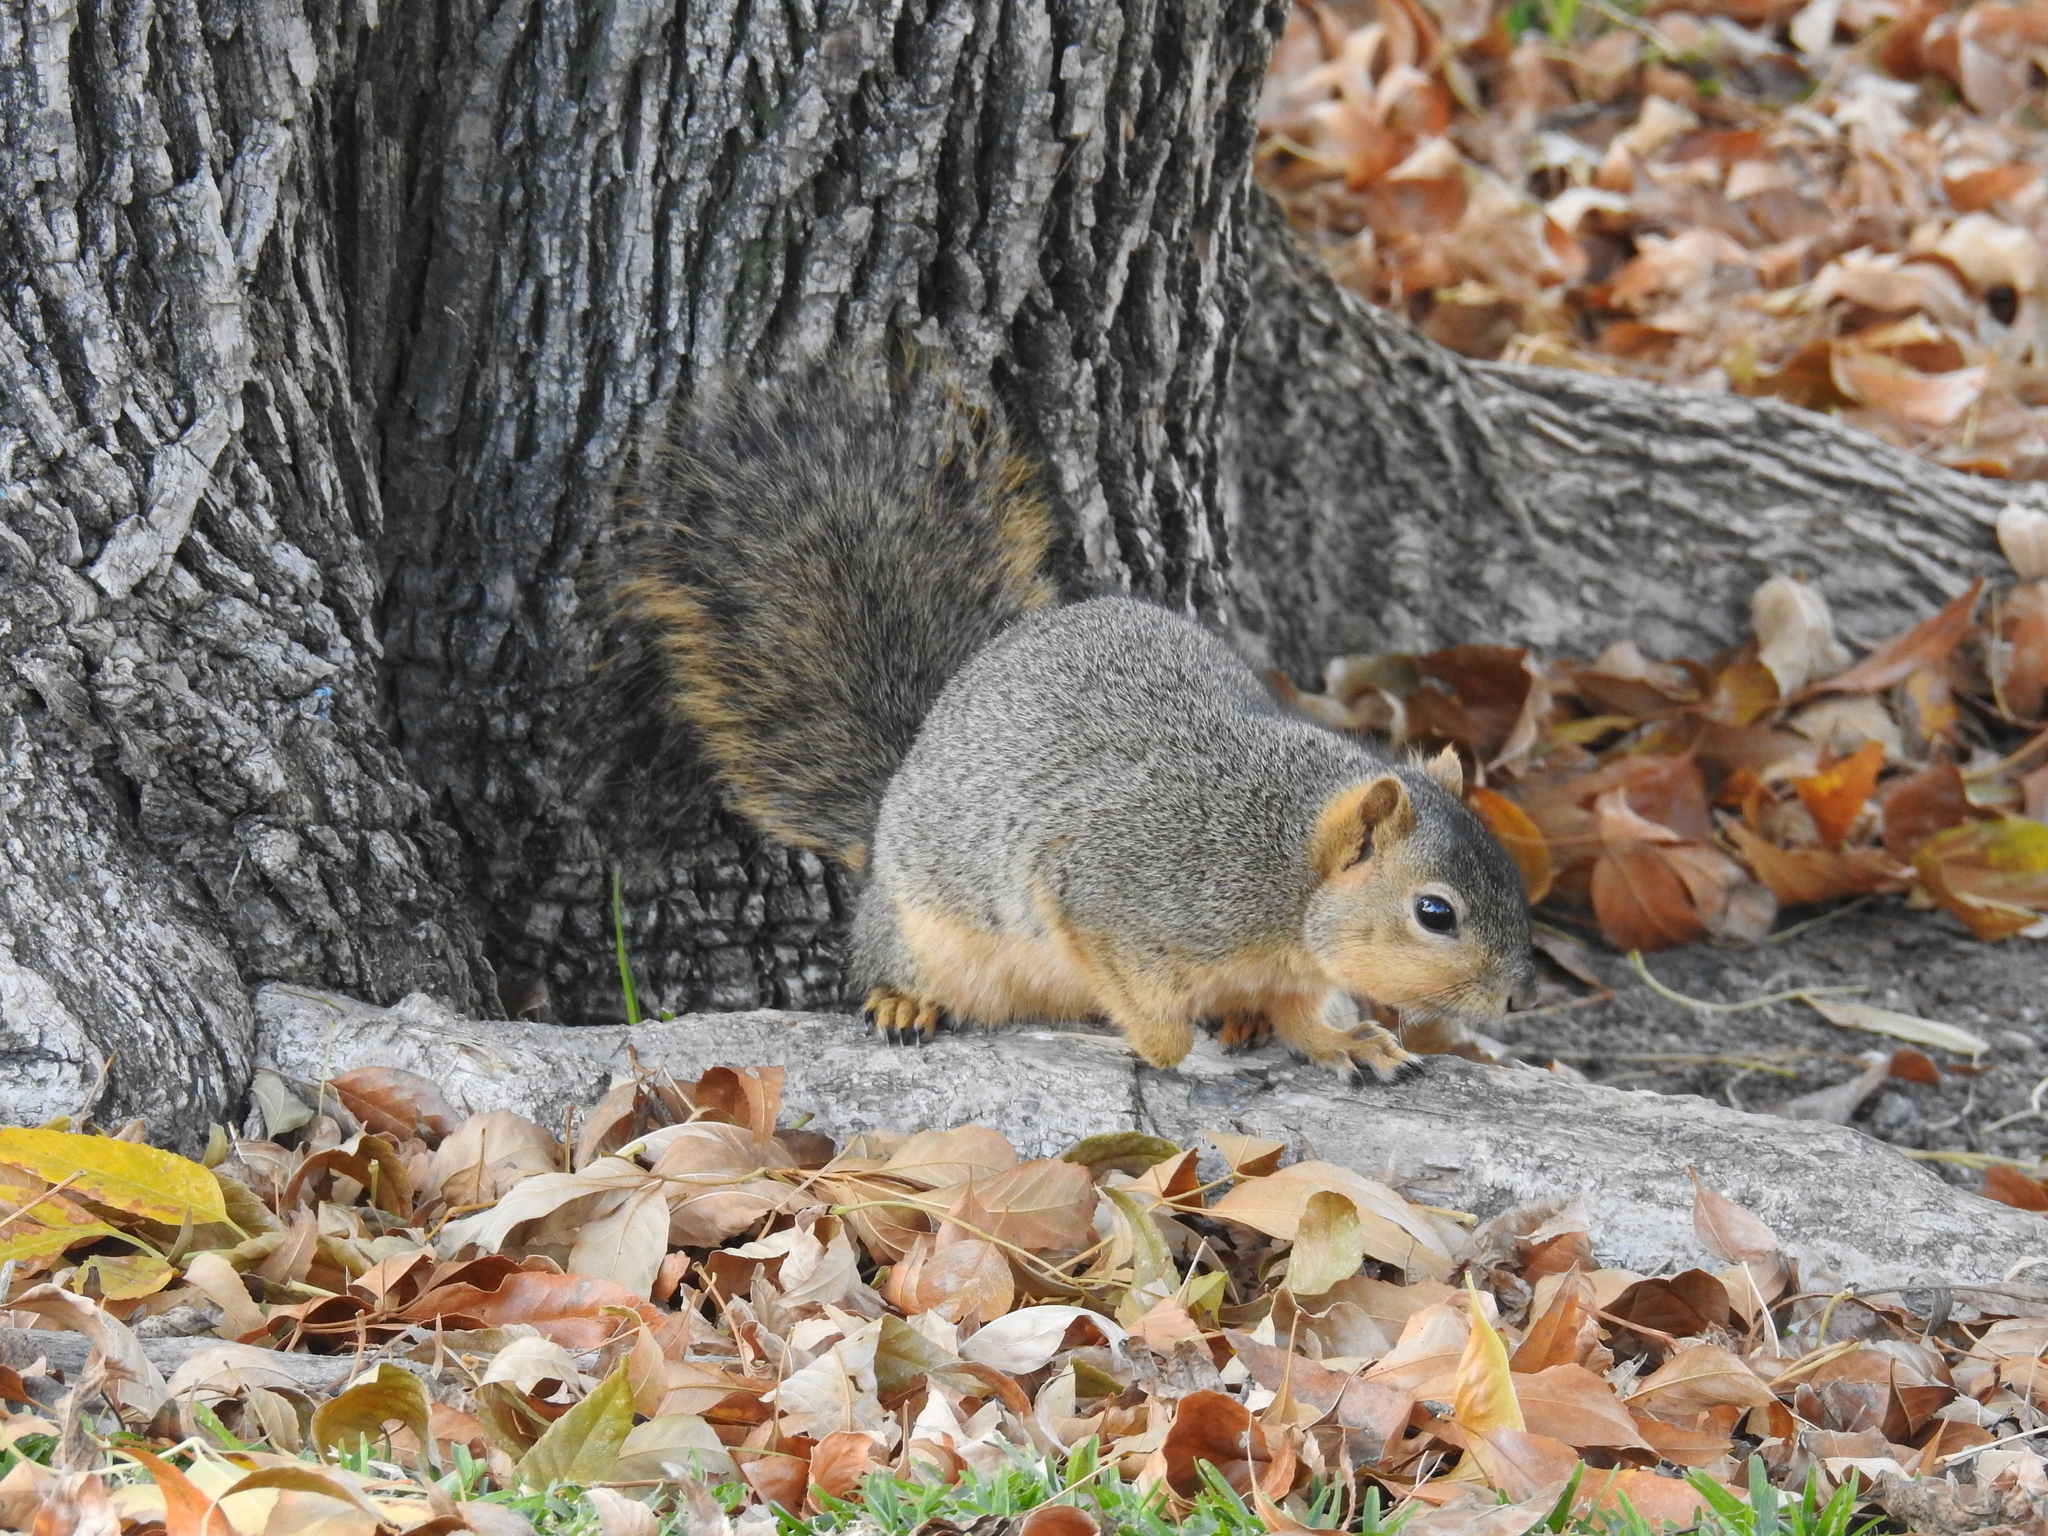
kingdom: Animalia
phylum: Chordata
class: Mammalia
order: Rodentia
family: Sciuridae
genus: Sciurus
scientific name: Sciurus niger
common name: Fox squirrel
